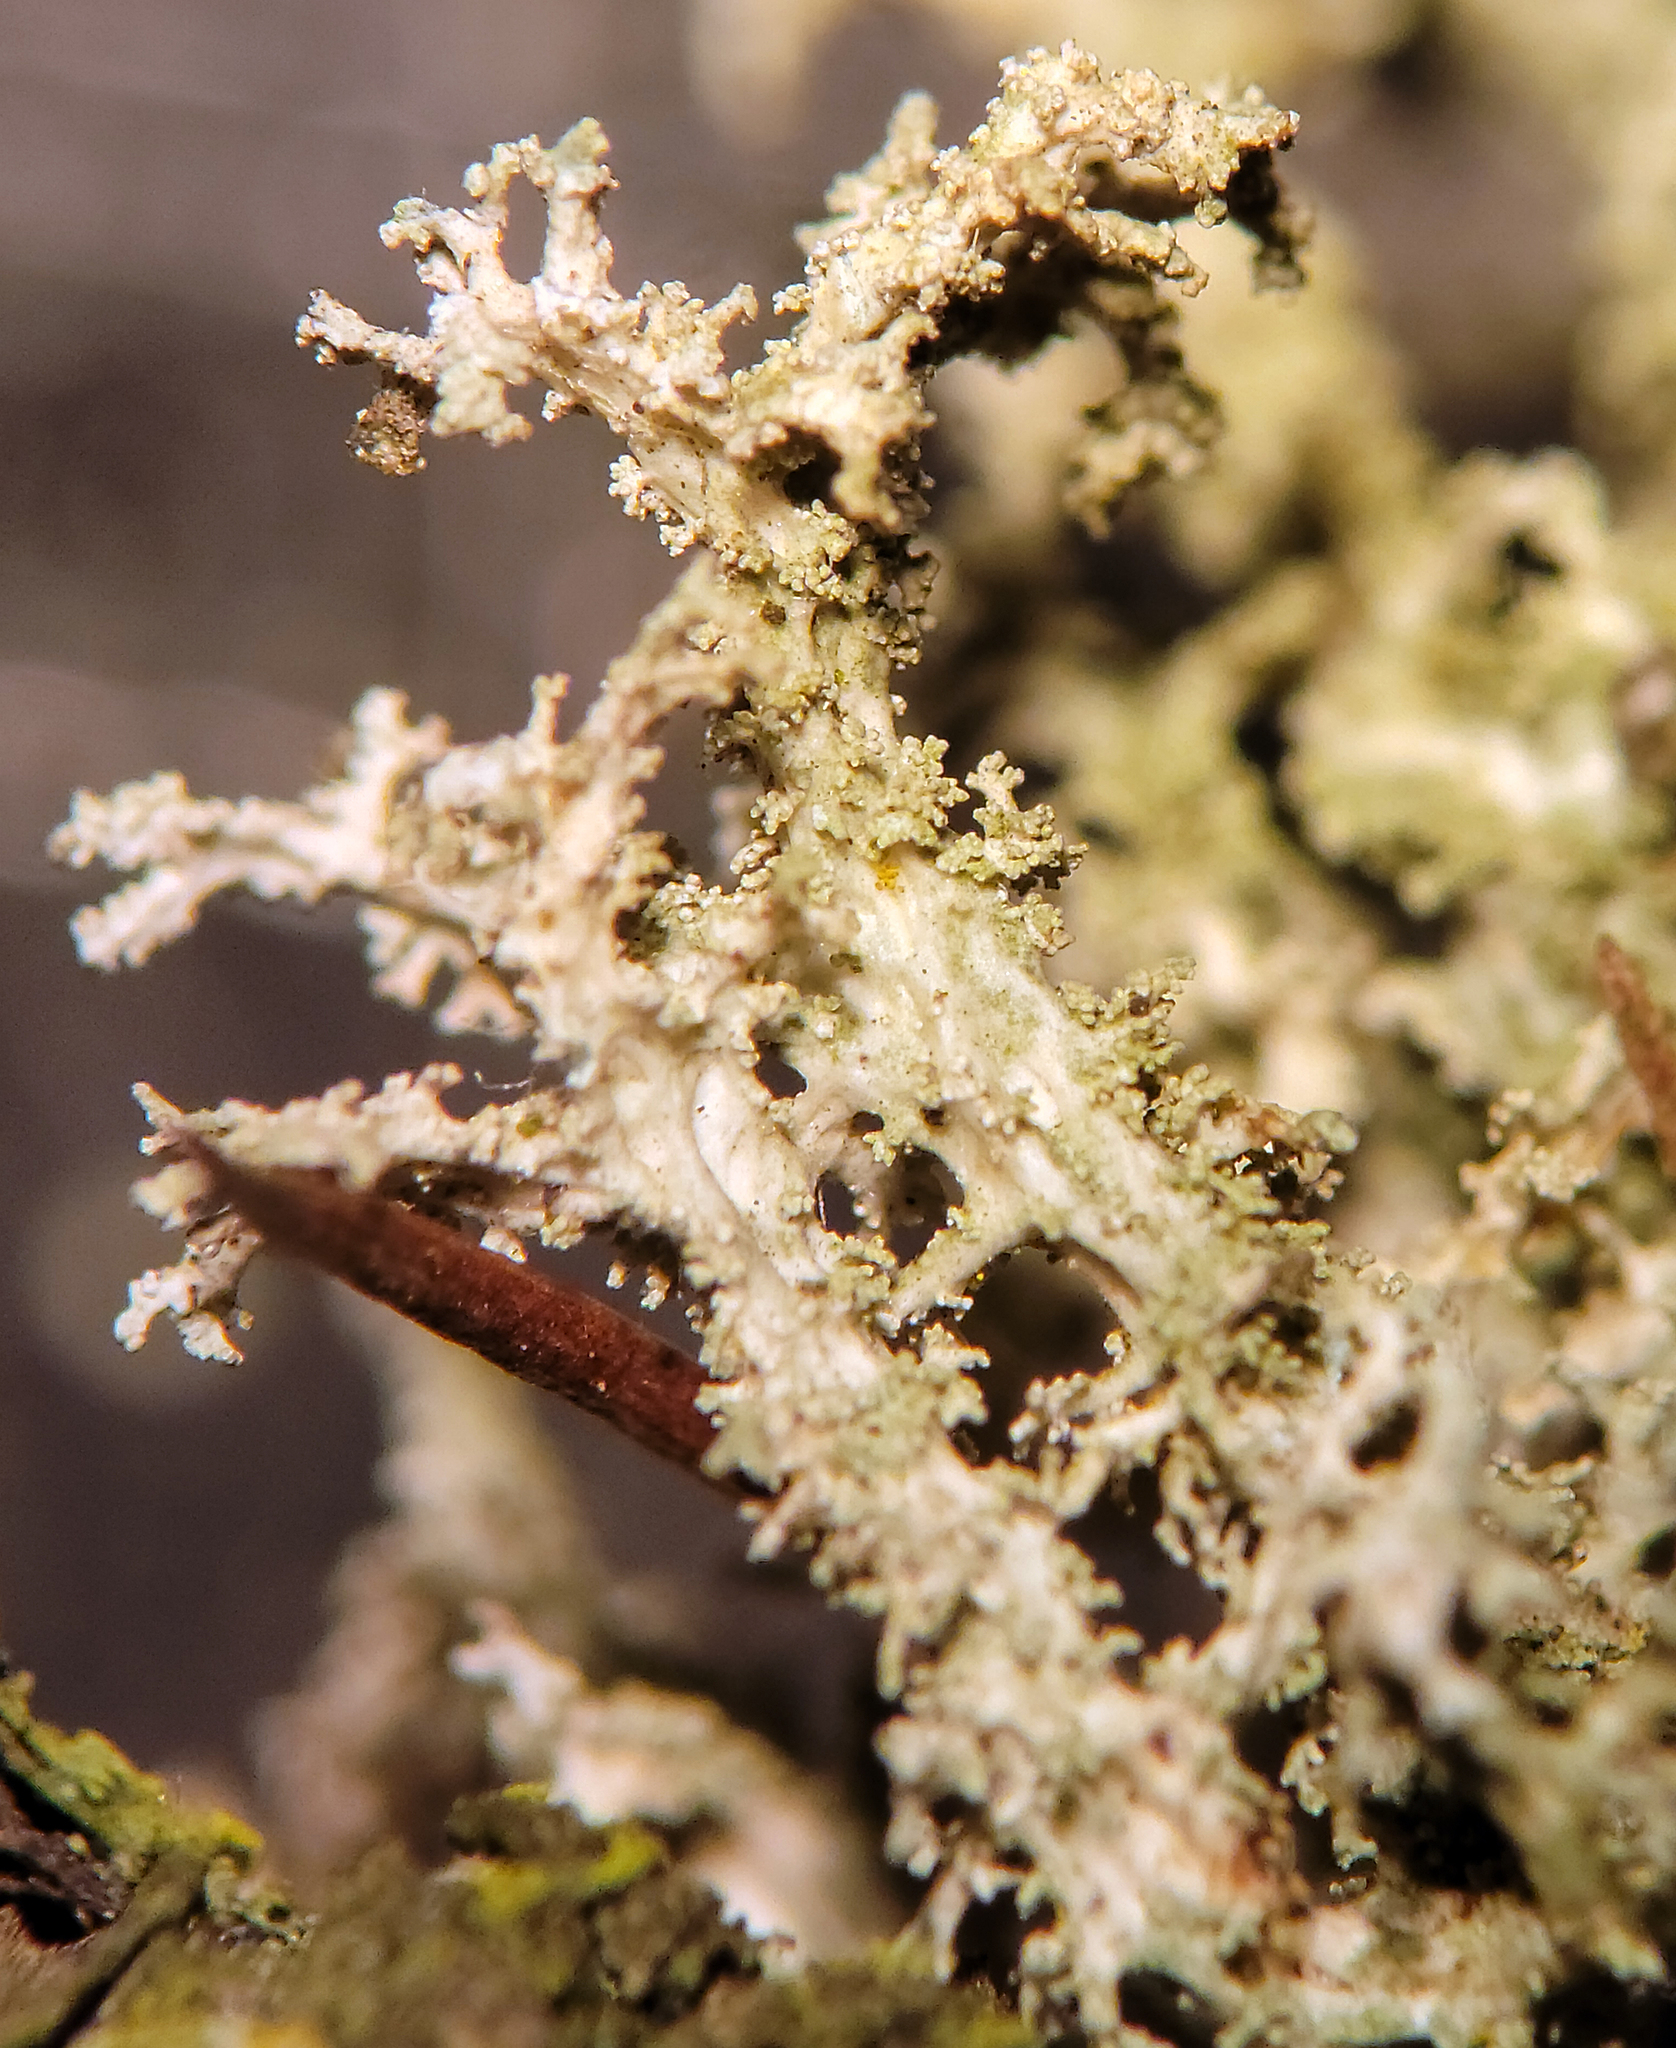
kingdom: Fungi
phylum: Ascomycota
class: Lecanoromycetes
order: Lecanorales
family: Parmeliaceae
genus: Evernia
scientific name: Evernia mesomorpha
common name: Boreal oak moss lichen
